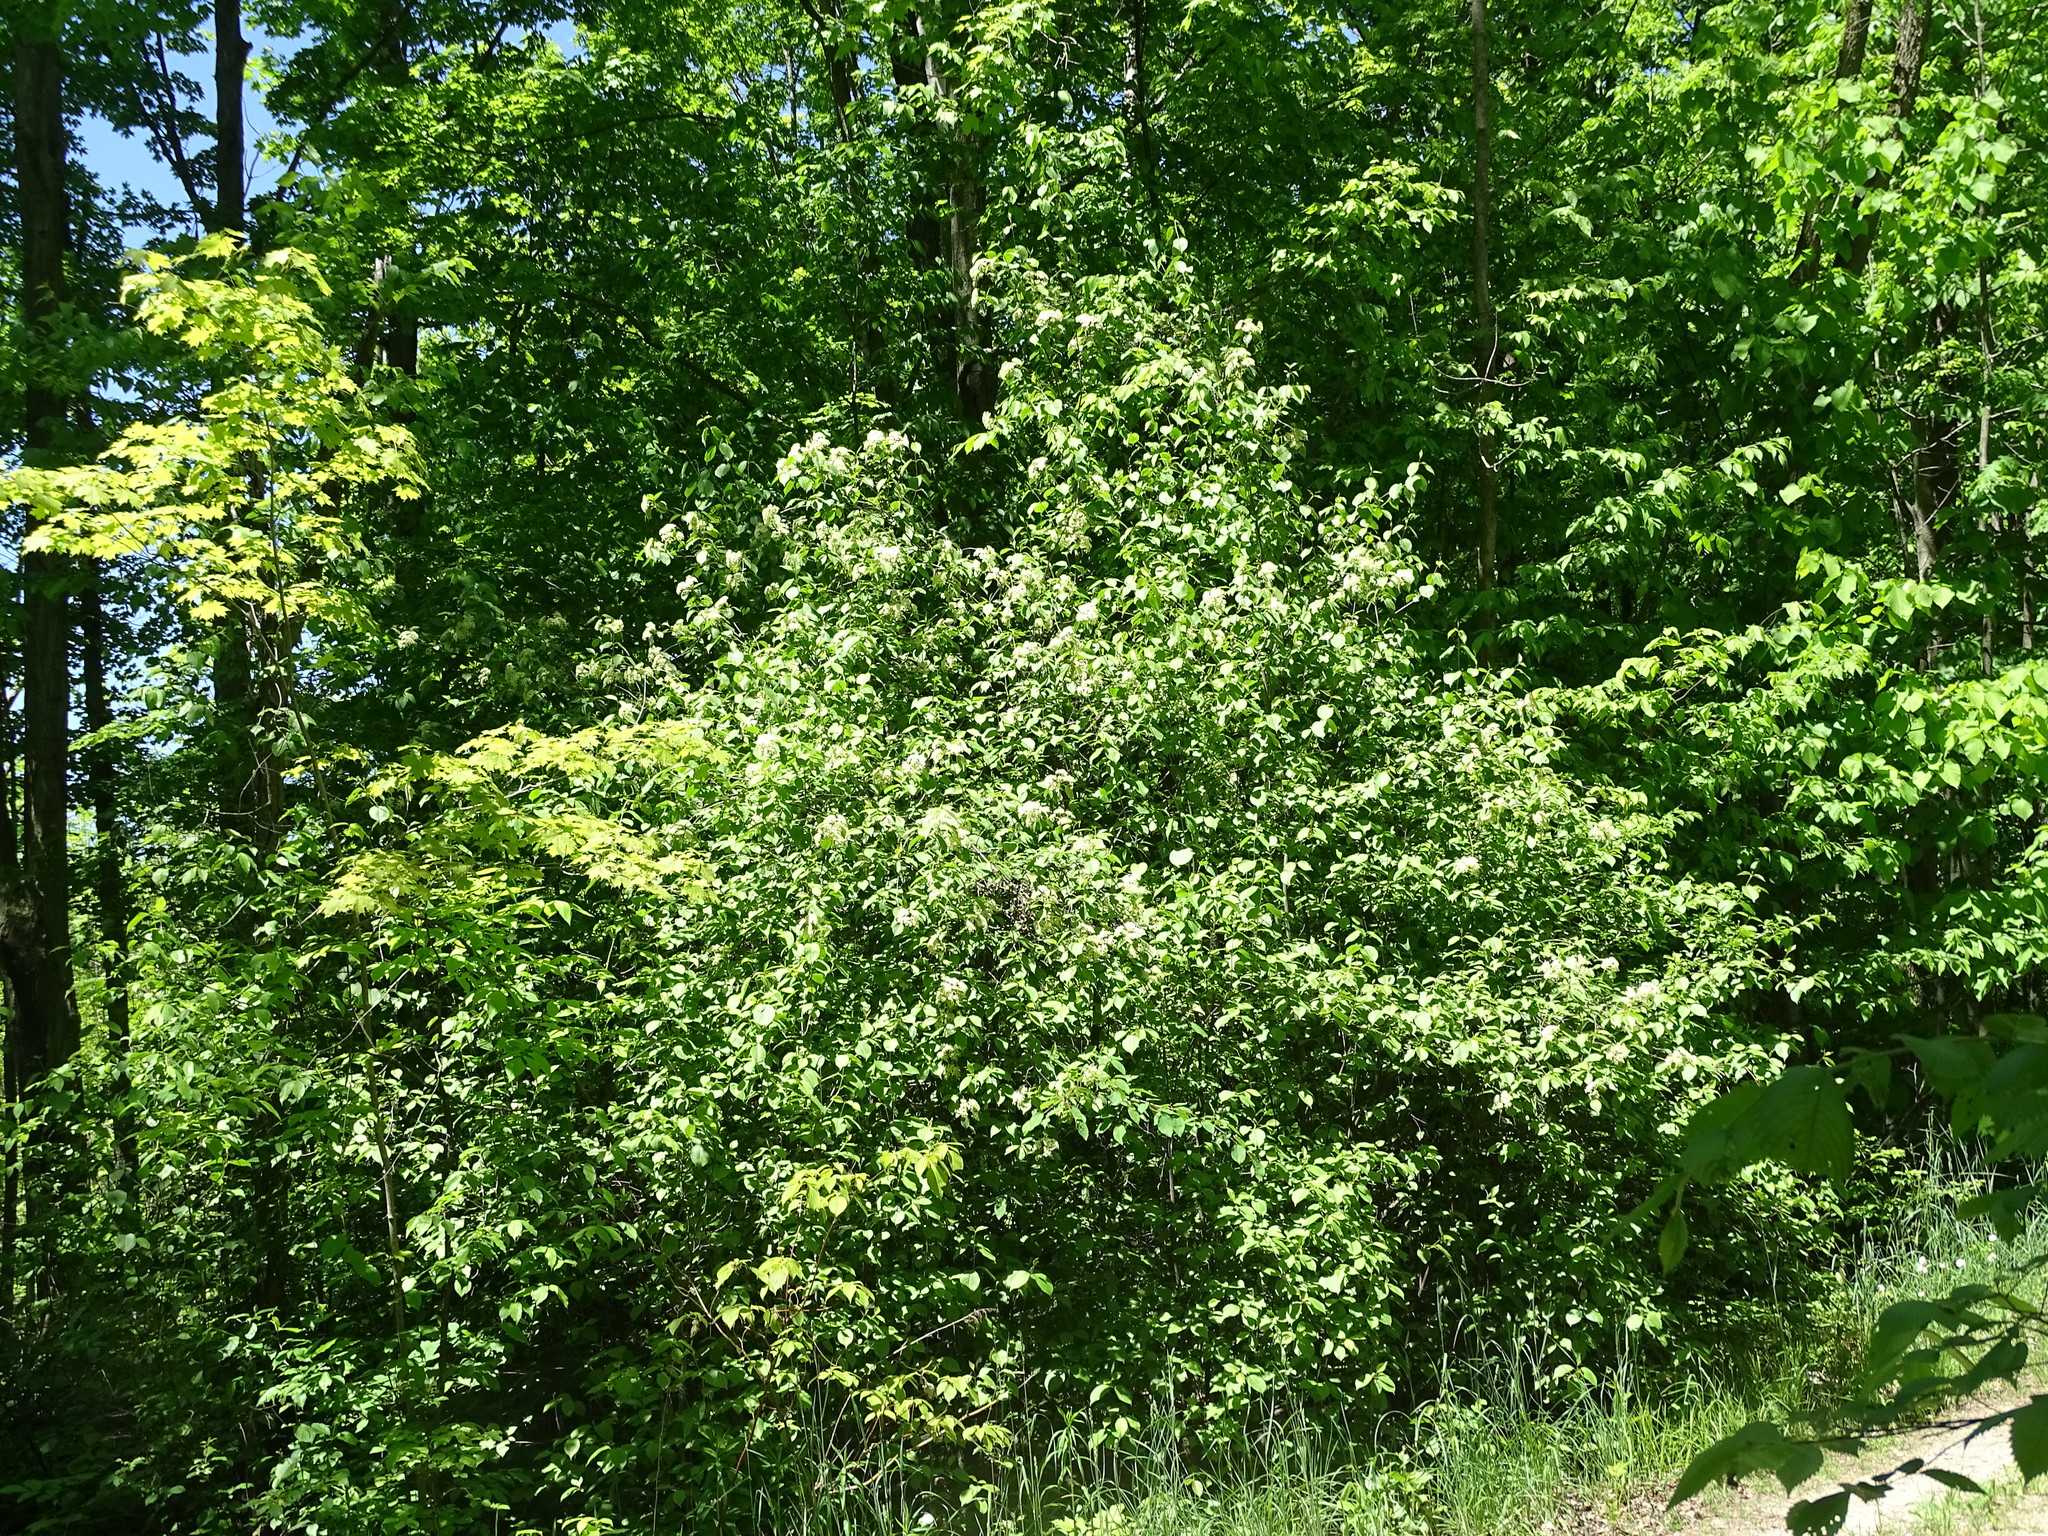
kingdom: Plantae
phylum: Tracheophyta
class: Magnoliopsida
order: Dipsacales
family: Viburnaceae
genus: Viburnum
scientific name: Viburnum lentago
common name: Black haw
